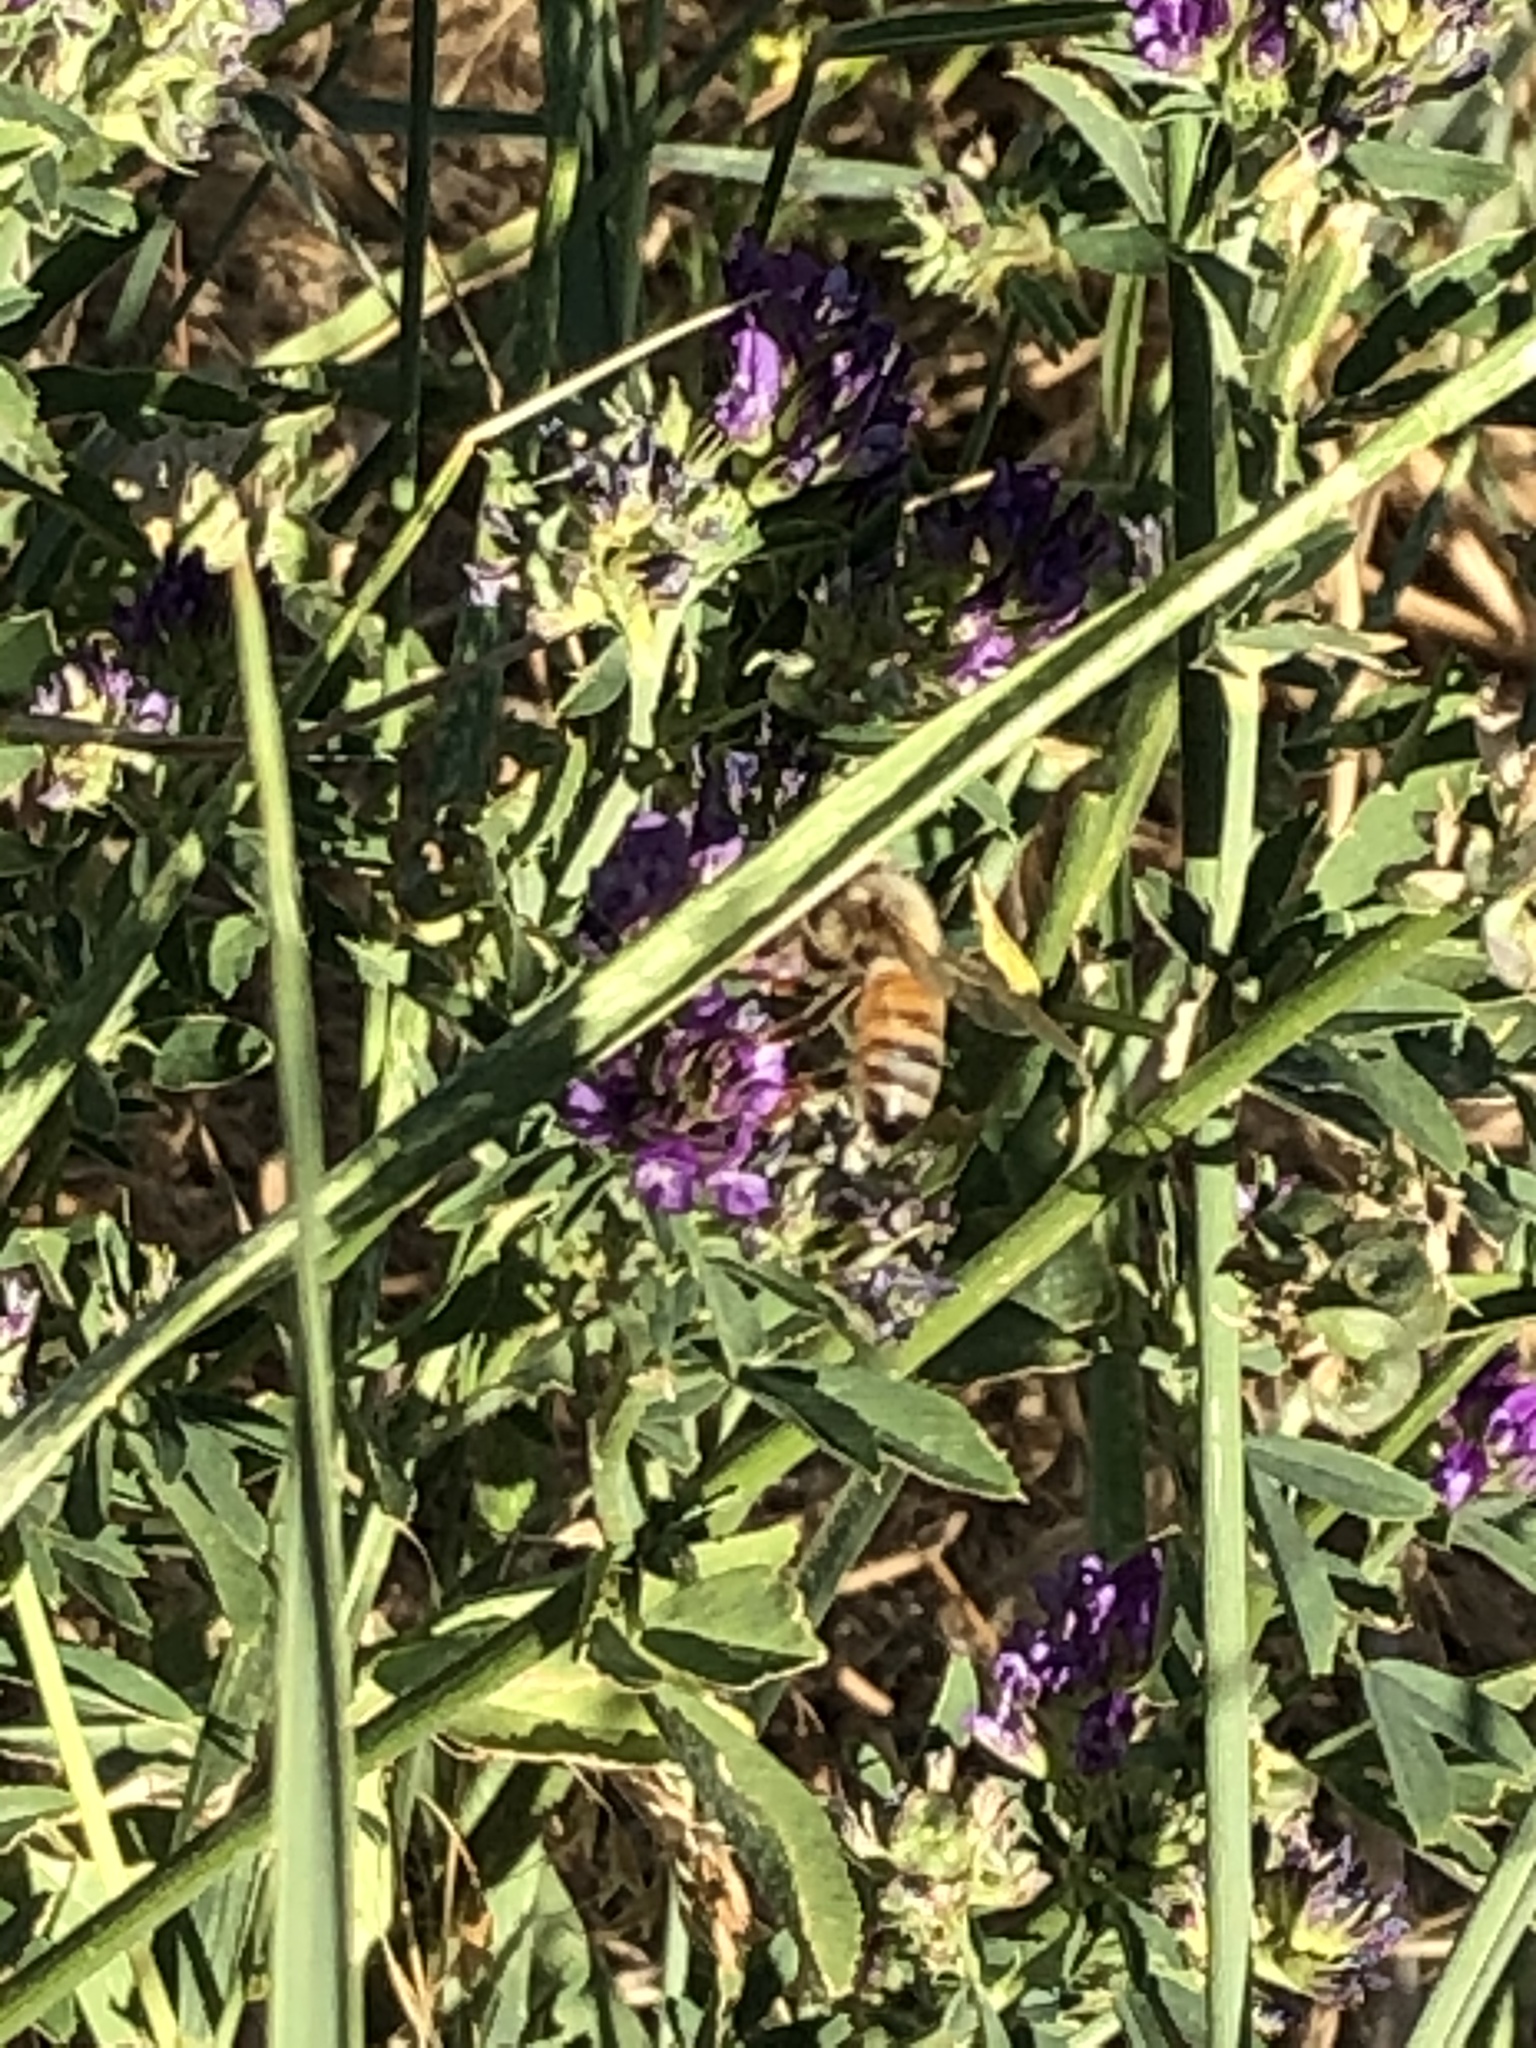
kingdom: Animalia
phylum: Arthropoda
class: Insecta
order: Hymenoptera
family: Apidae
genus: Apis
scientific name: Apis mellifera
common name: Honey bee
